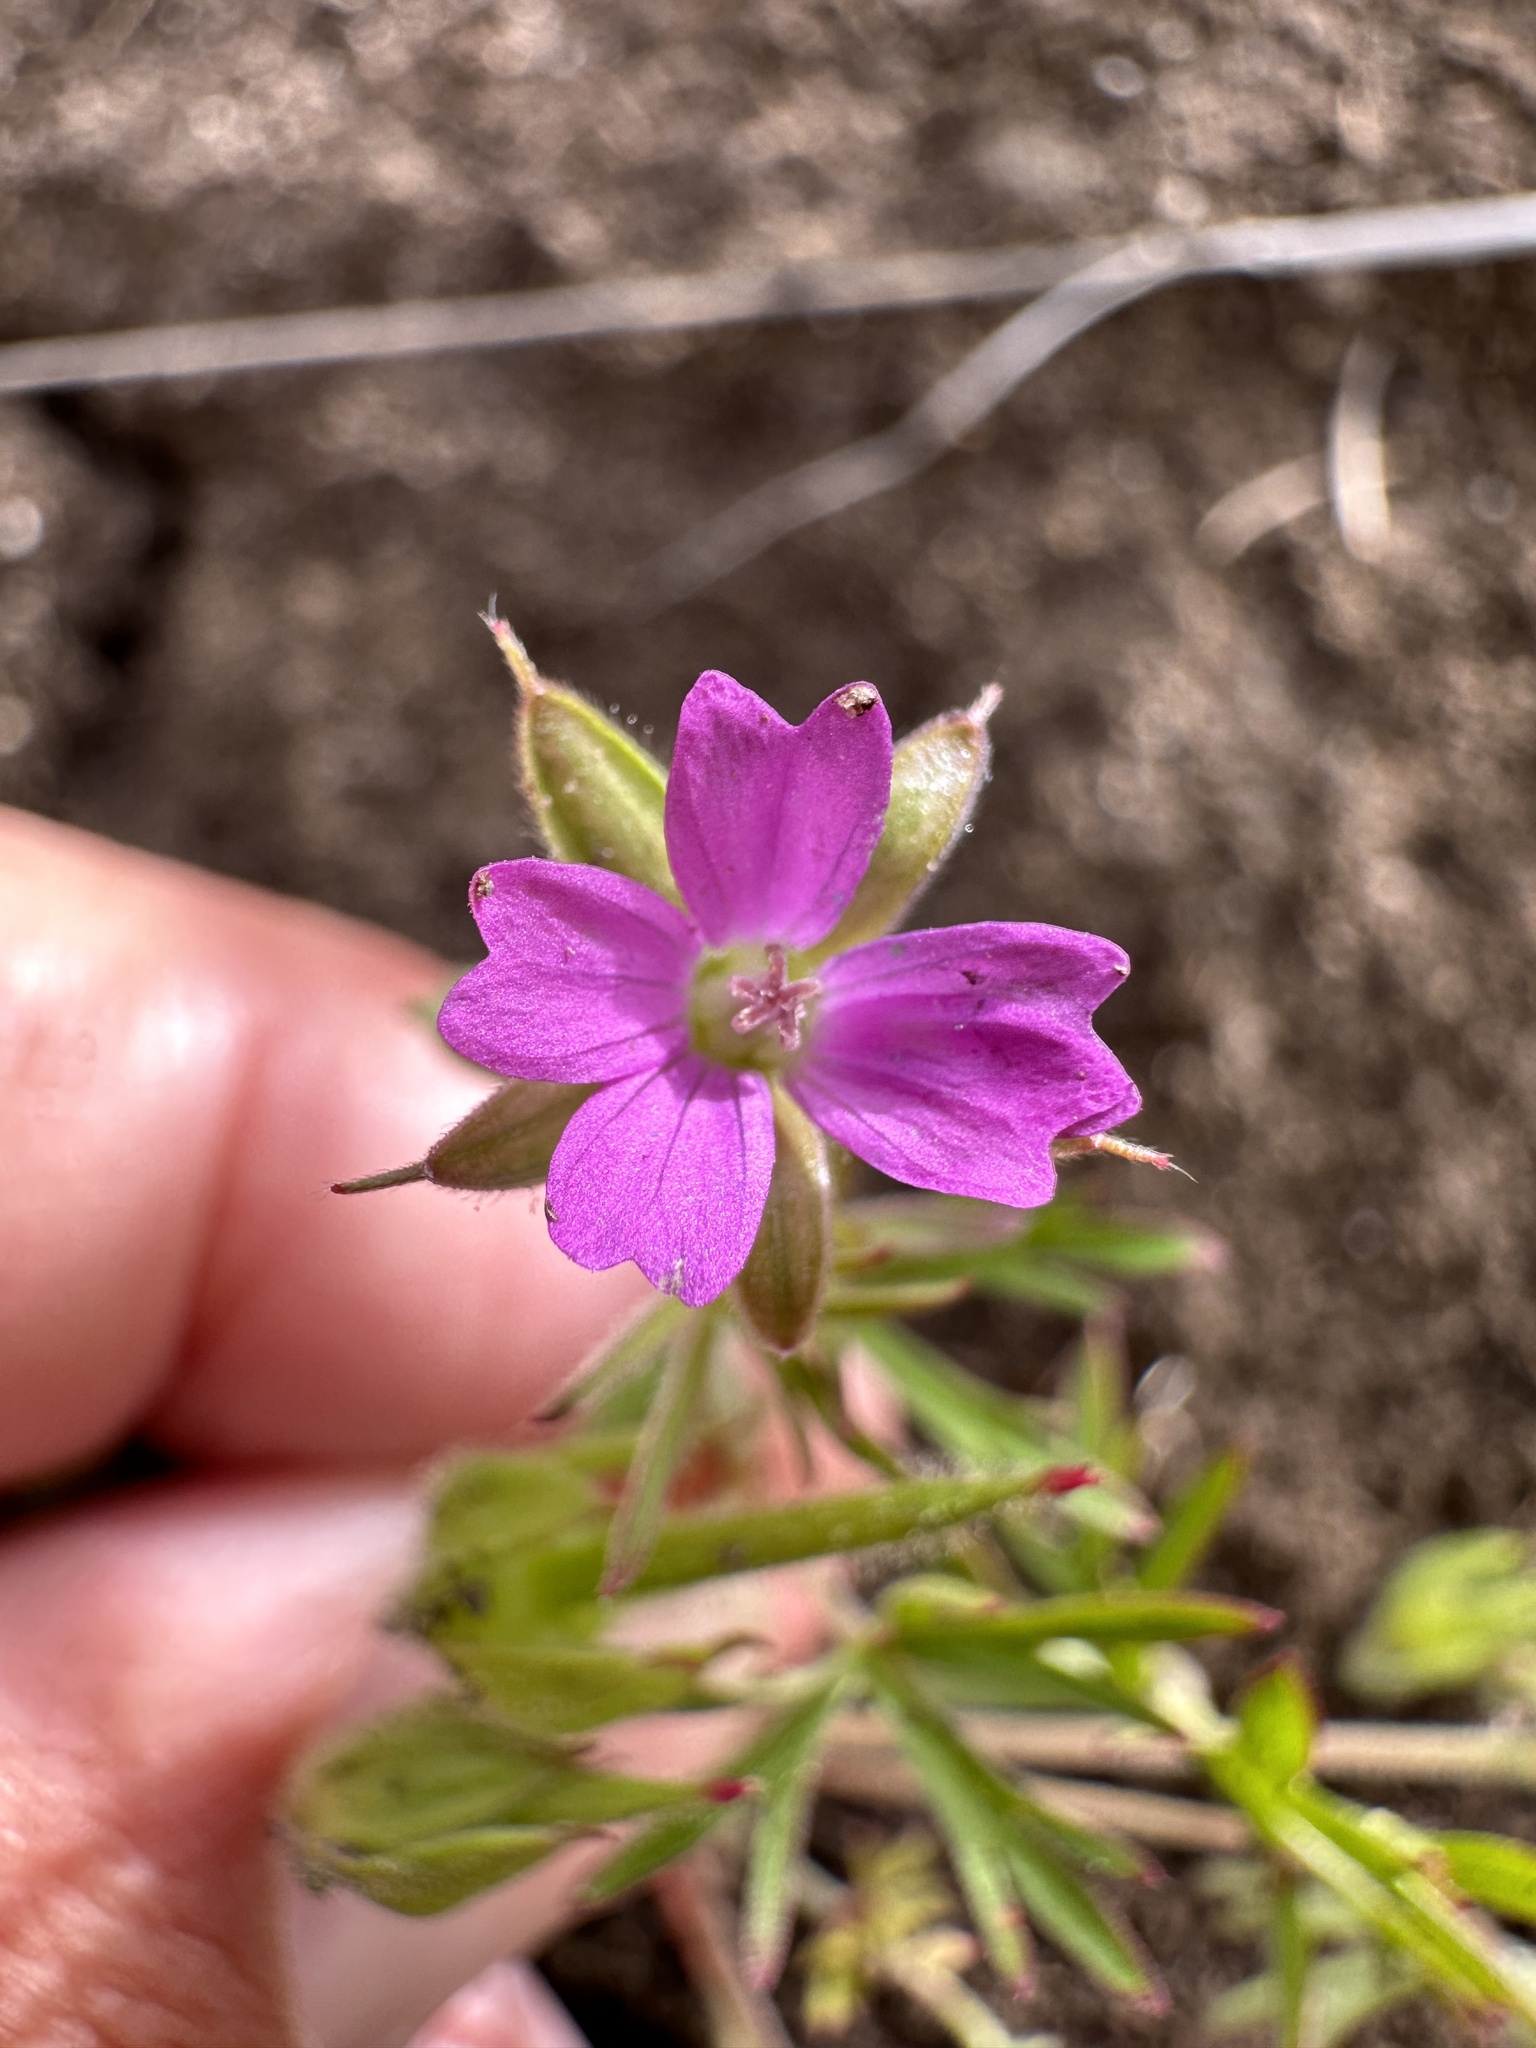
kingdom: Plantae
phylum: Tracheophyta
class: Magnoliopsida
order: Geraniales
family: Geraniaceae
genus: Geranium
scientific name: Geranium dissectum
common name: Cut-leaved crane's-bill
